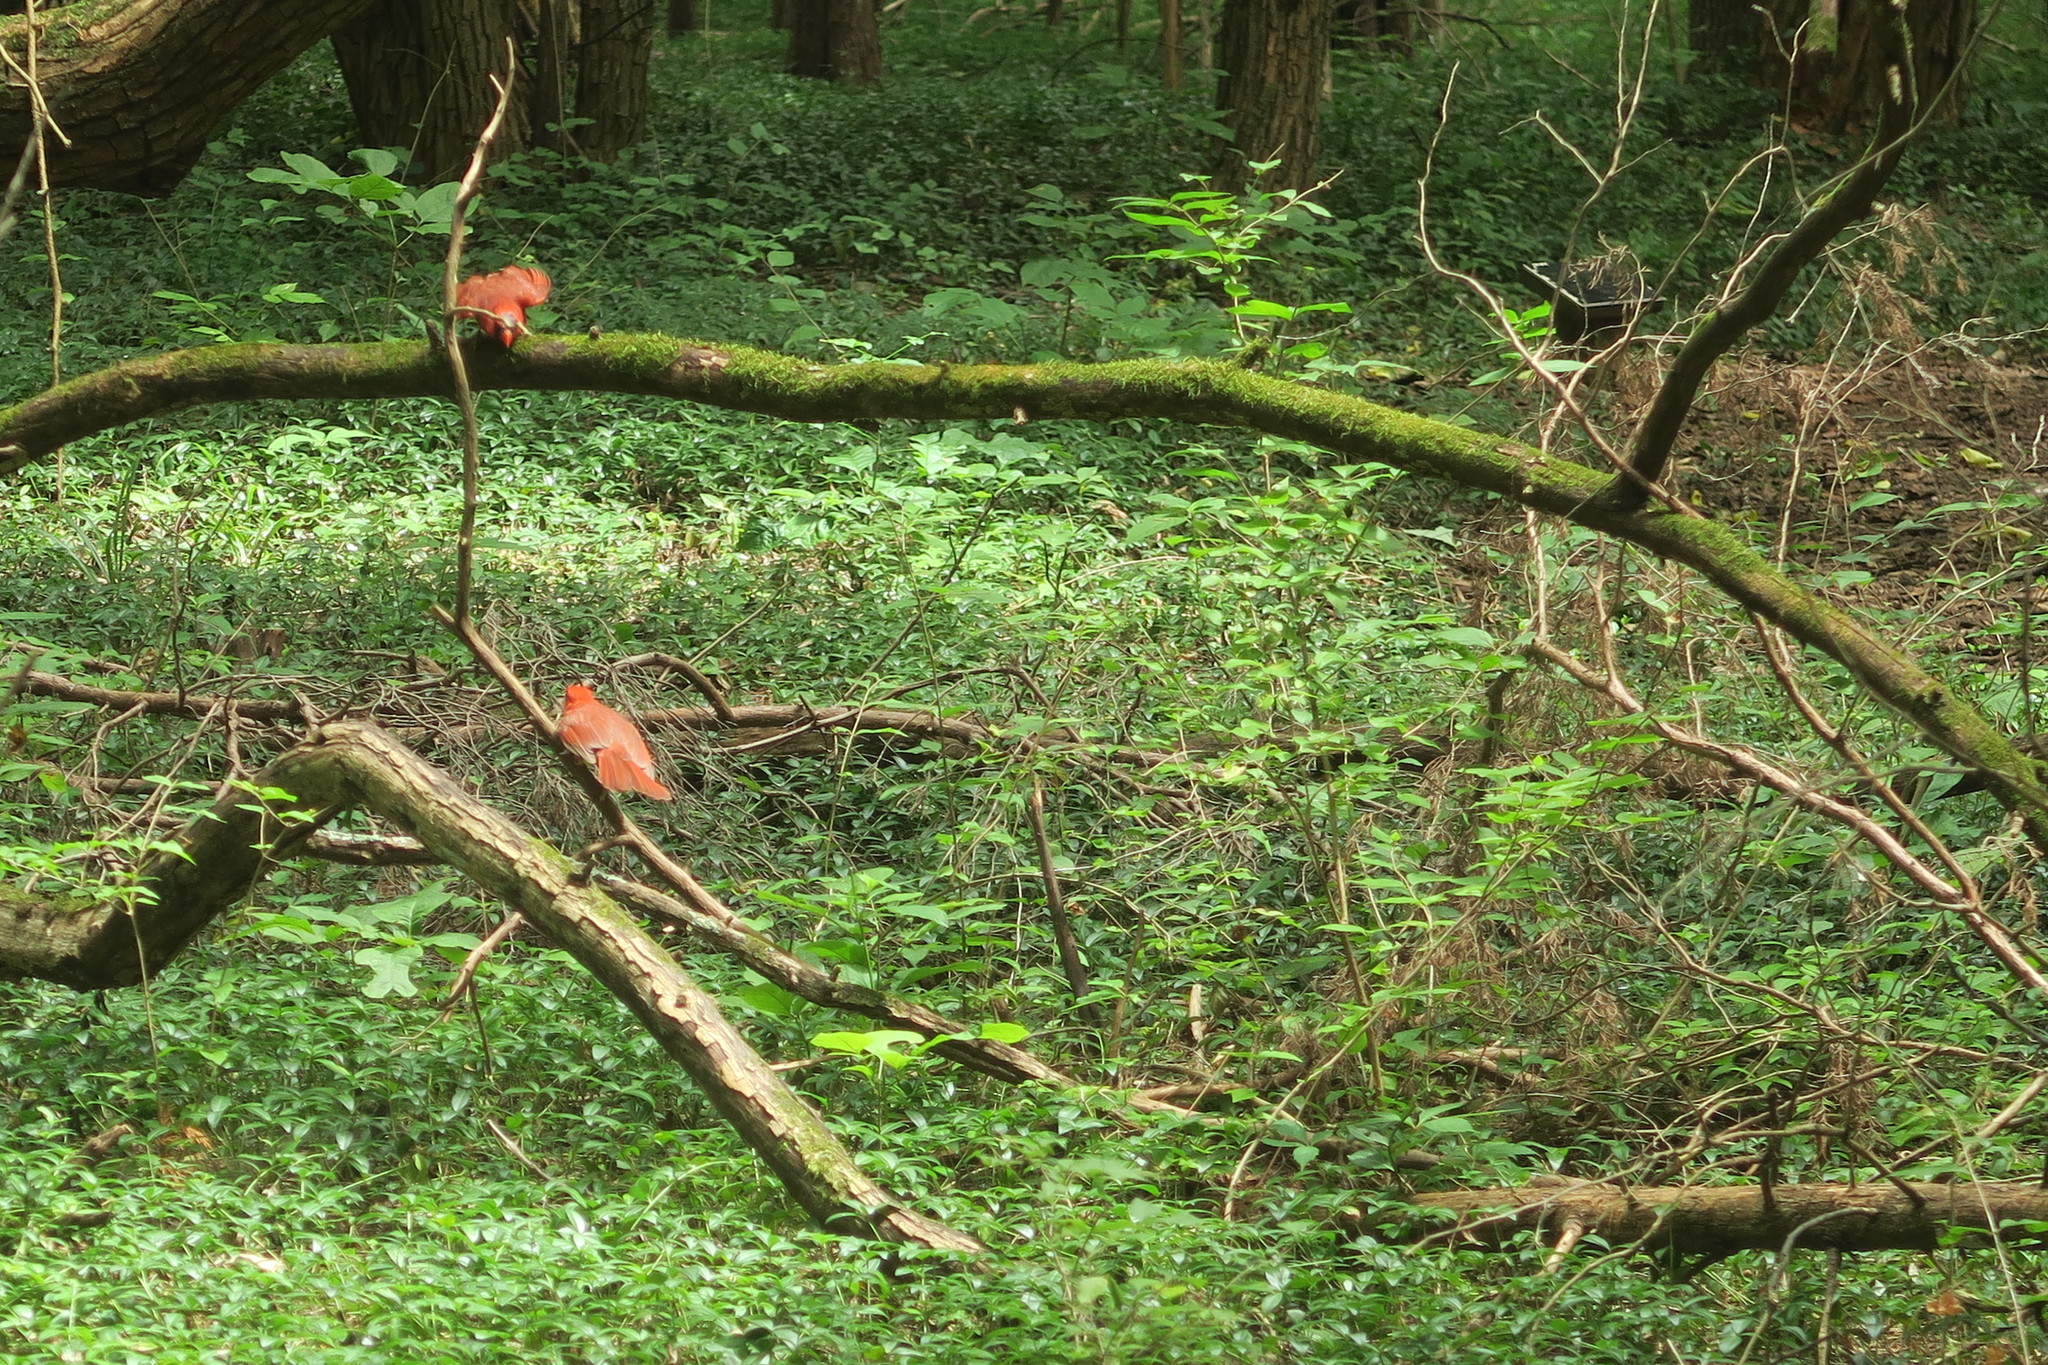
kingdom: Animalia
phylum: Chordata
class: Aves
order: Passeriformes
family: Cardinalidae
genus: Cardinalis
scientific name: Cardinalis cardinalis
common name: Northern cardinal
